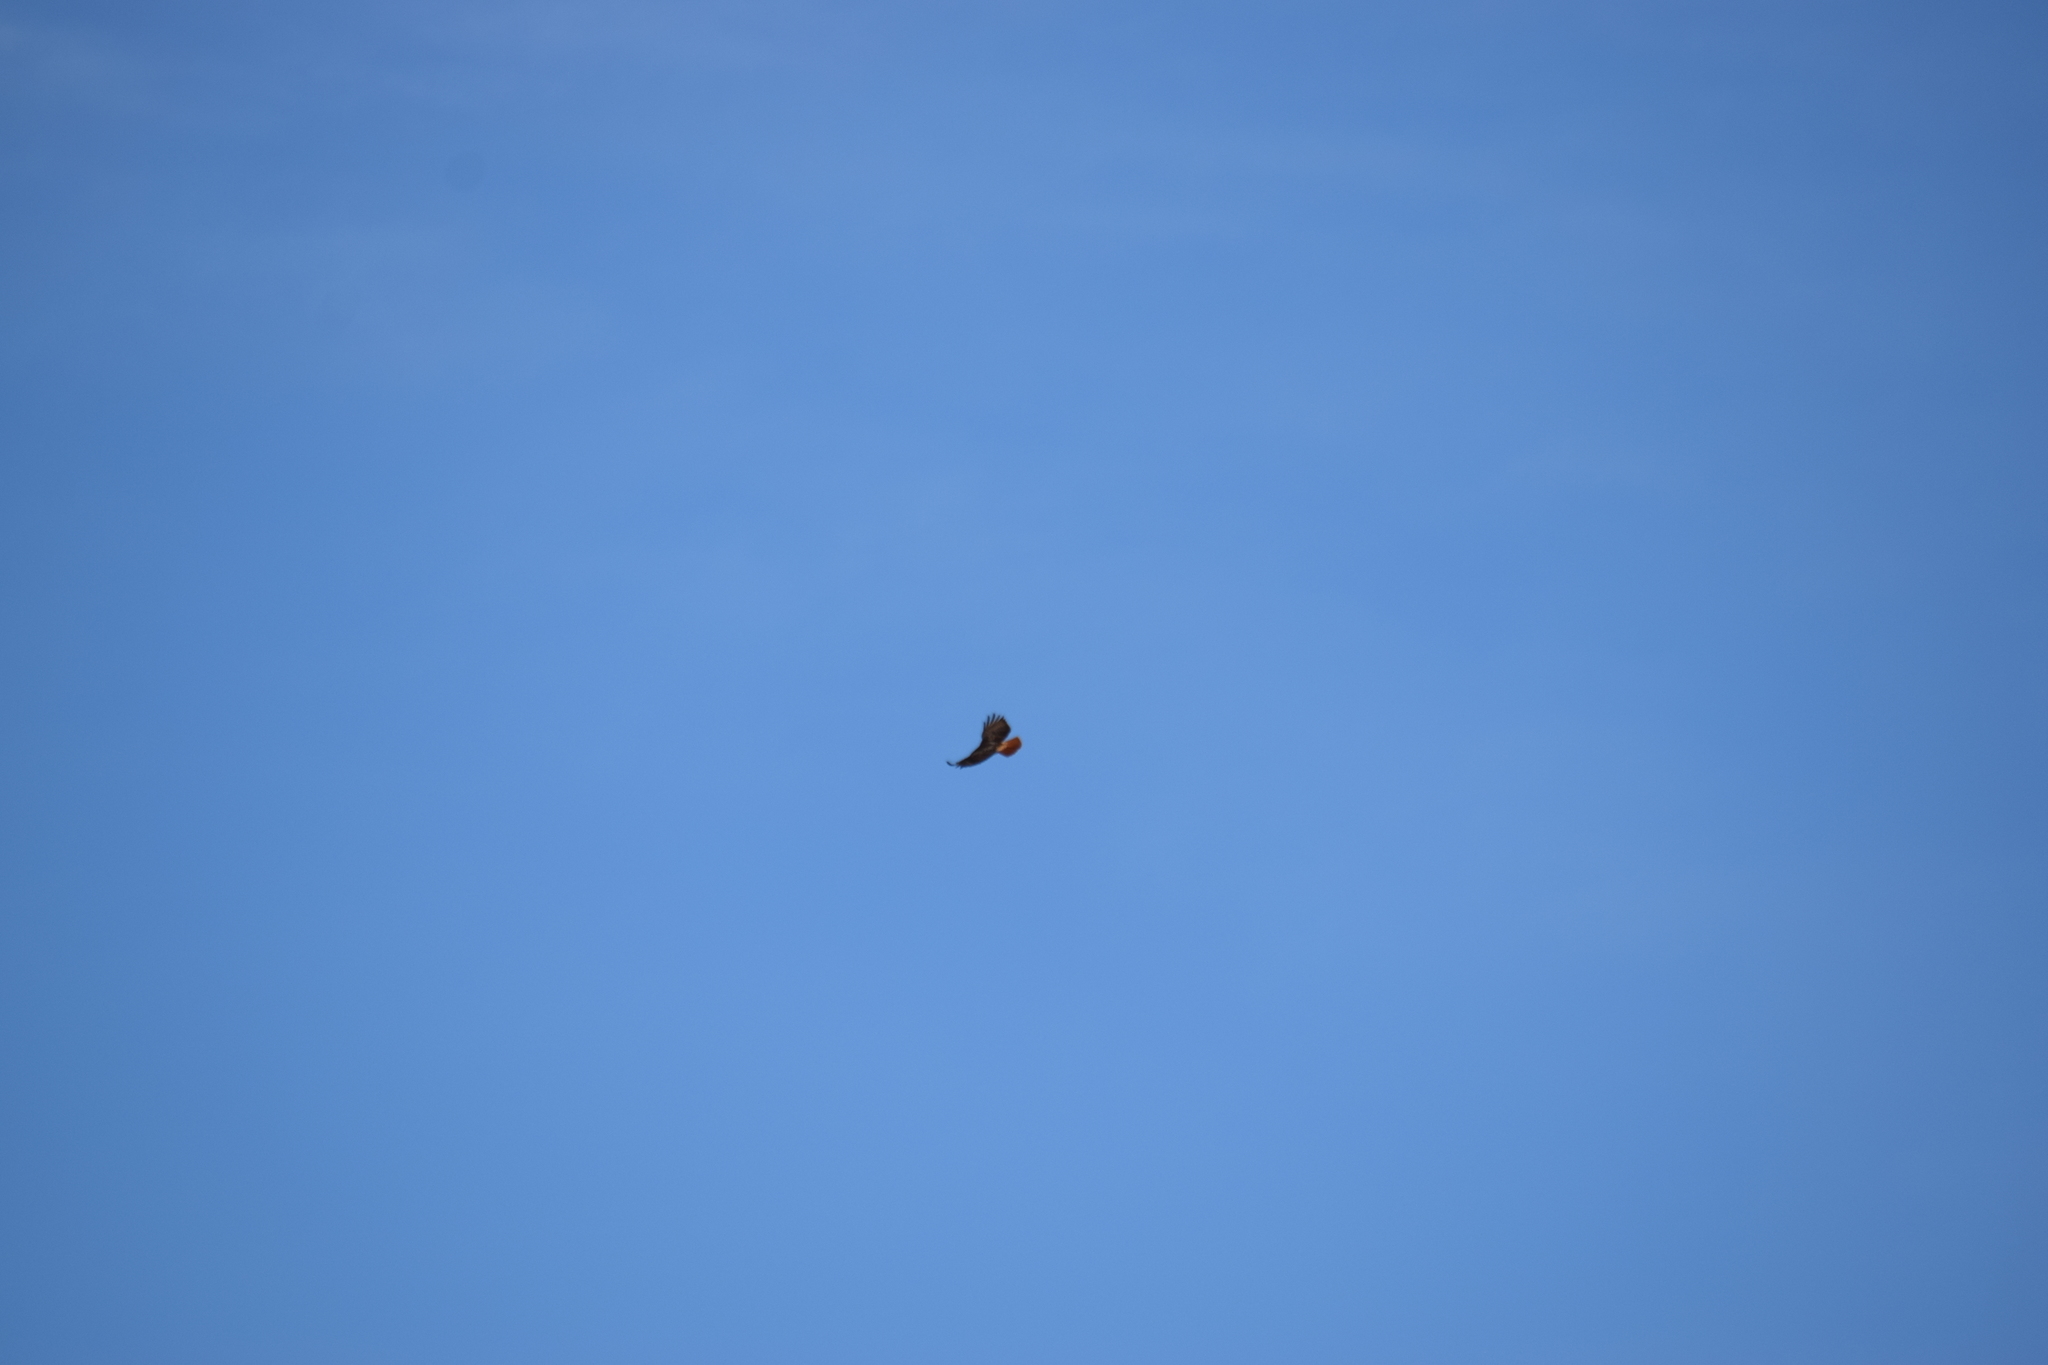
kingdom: Animalia
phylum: Chordata
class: Aves
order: Accipitriformes
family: Accipitridae
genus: Buteo
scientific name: Buteo jamaicensis
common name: Red-tailed hawk
